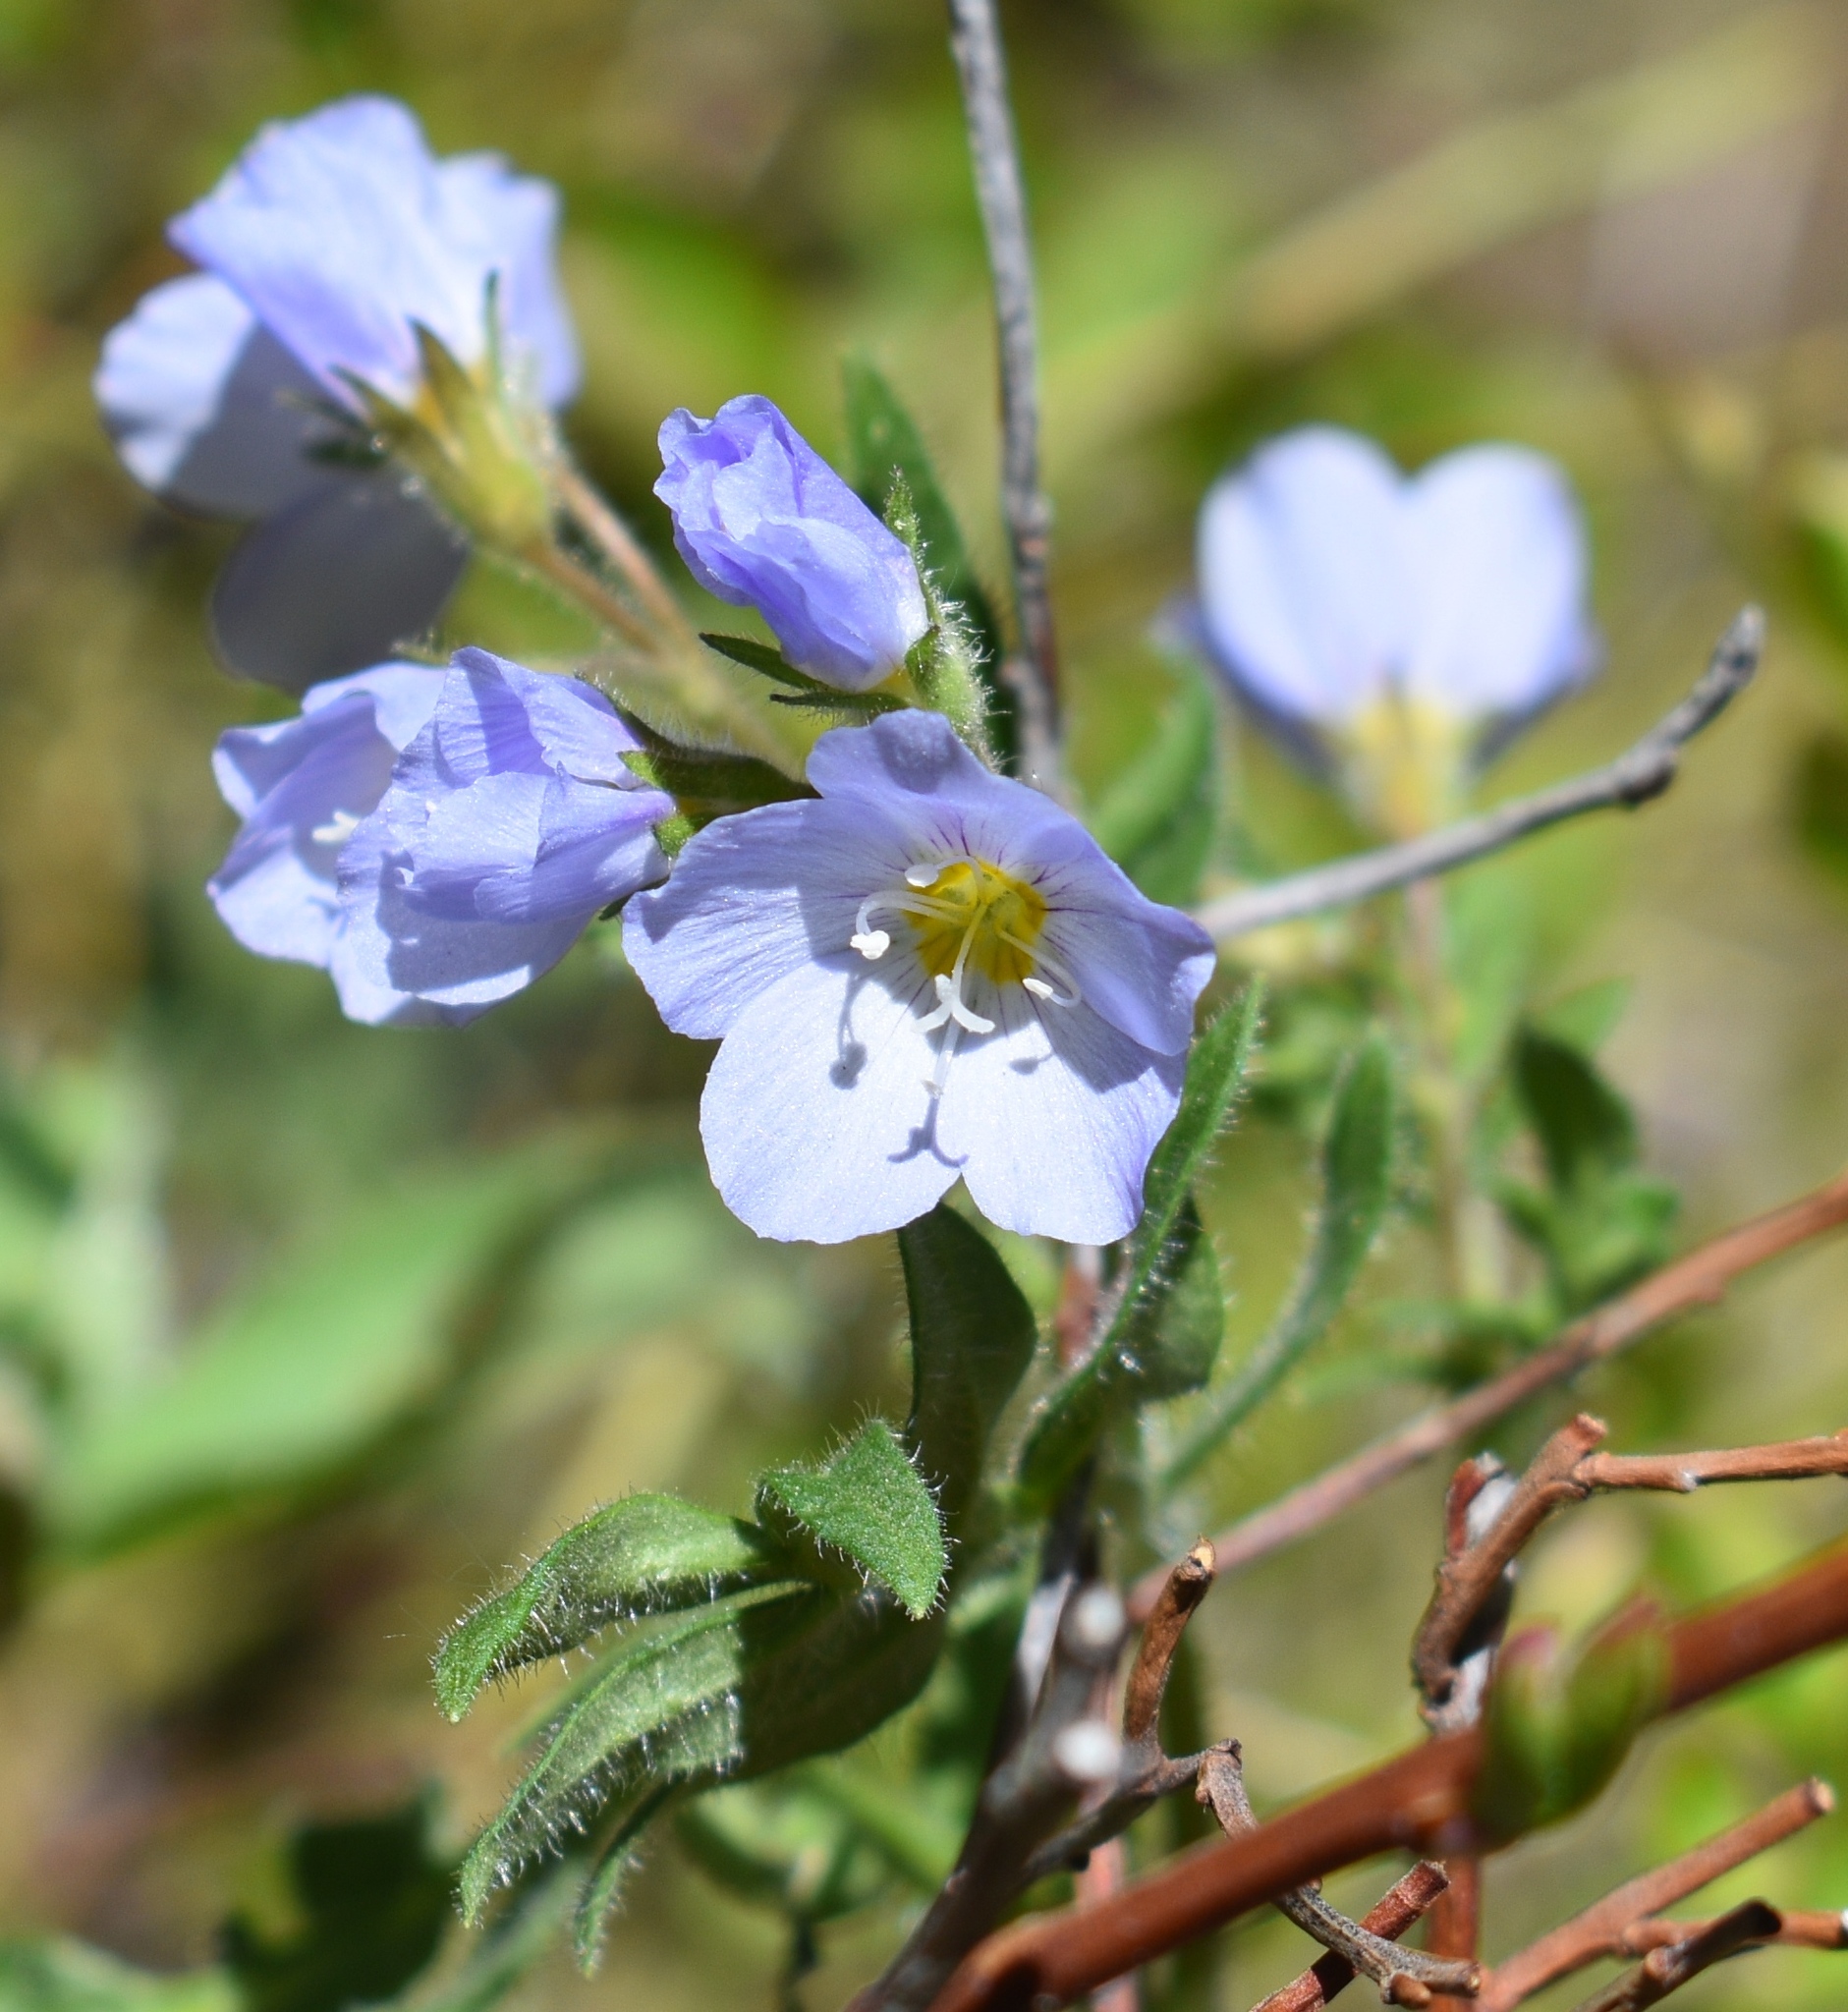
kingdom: Plantae
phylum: Tracheophyta
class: Magnoliopsida
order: Ericales
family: Polemoniaceae
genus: Polemonium
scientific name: Polemonium pulcherrimum
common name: Short jacob's-ladder
